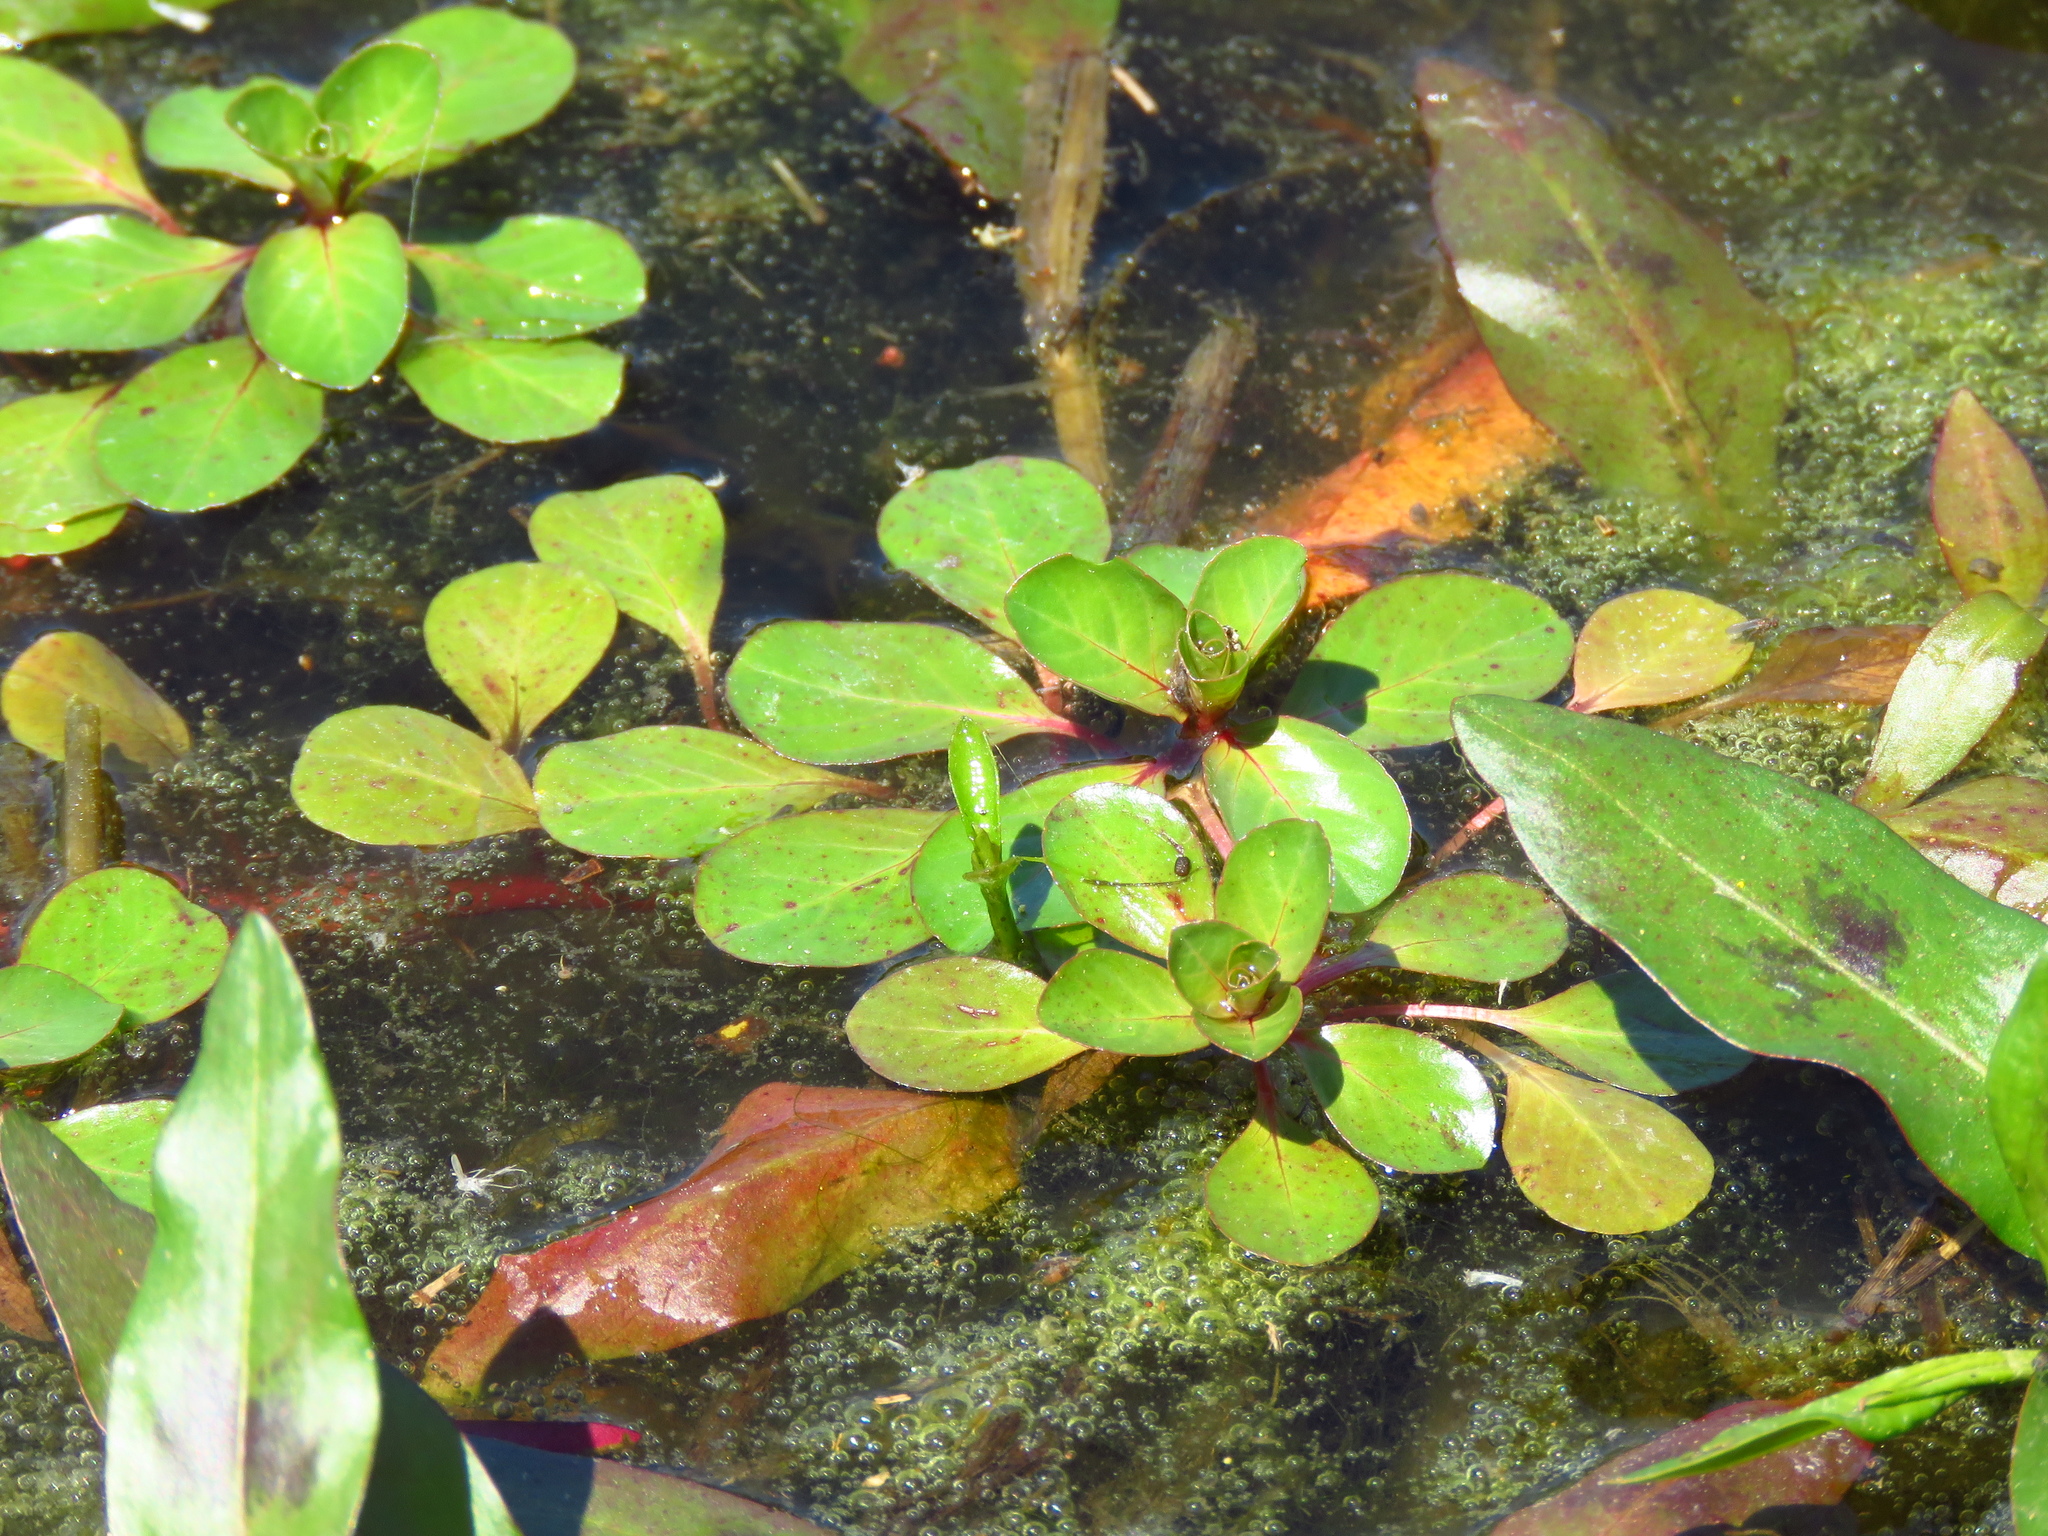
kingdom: Plantae
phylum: Tracheophyta
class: Magnoliopsida
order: Myrtales
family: Onagraceae
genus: Ludwigia
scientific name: Ludwigia peploides
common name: Floating primrose-willow
